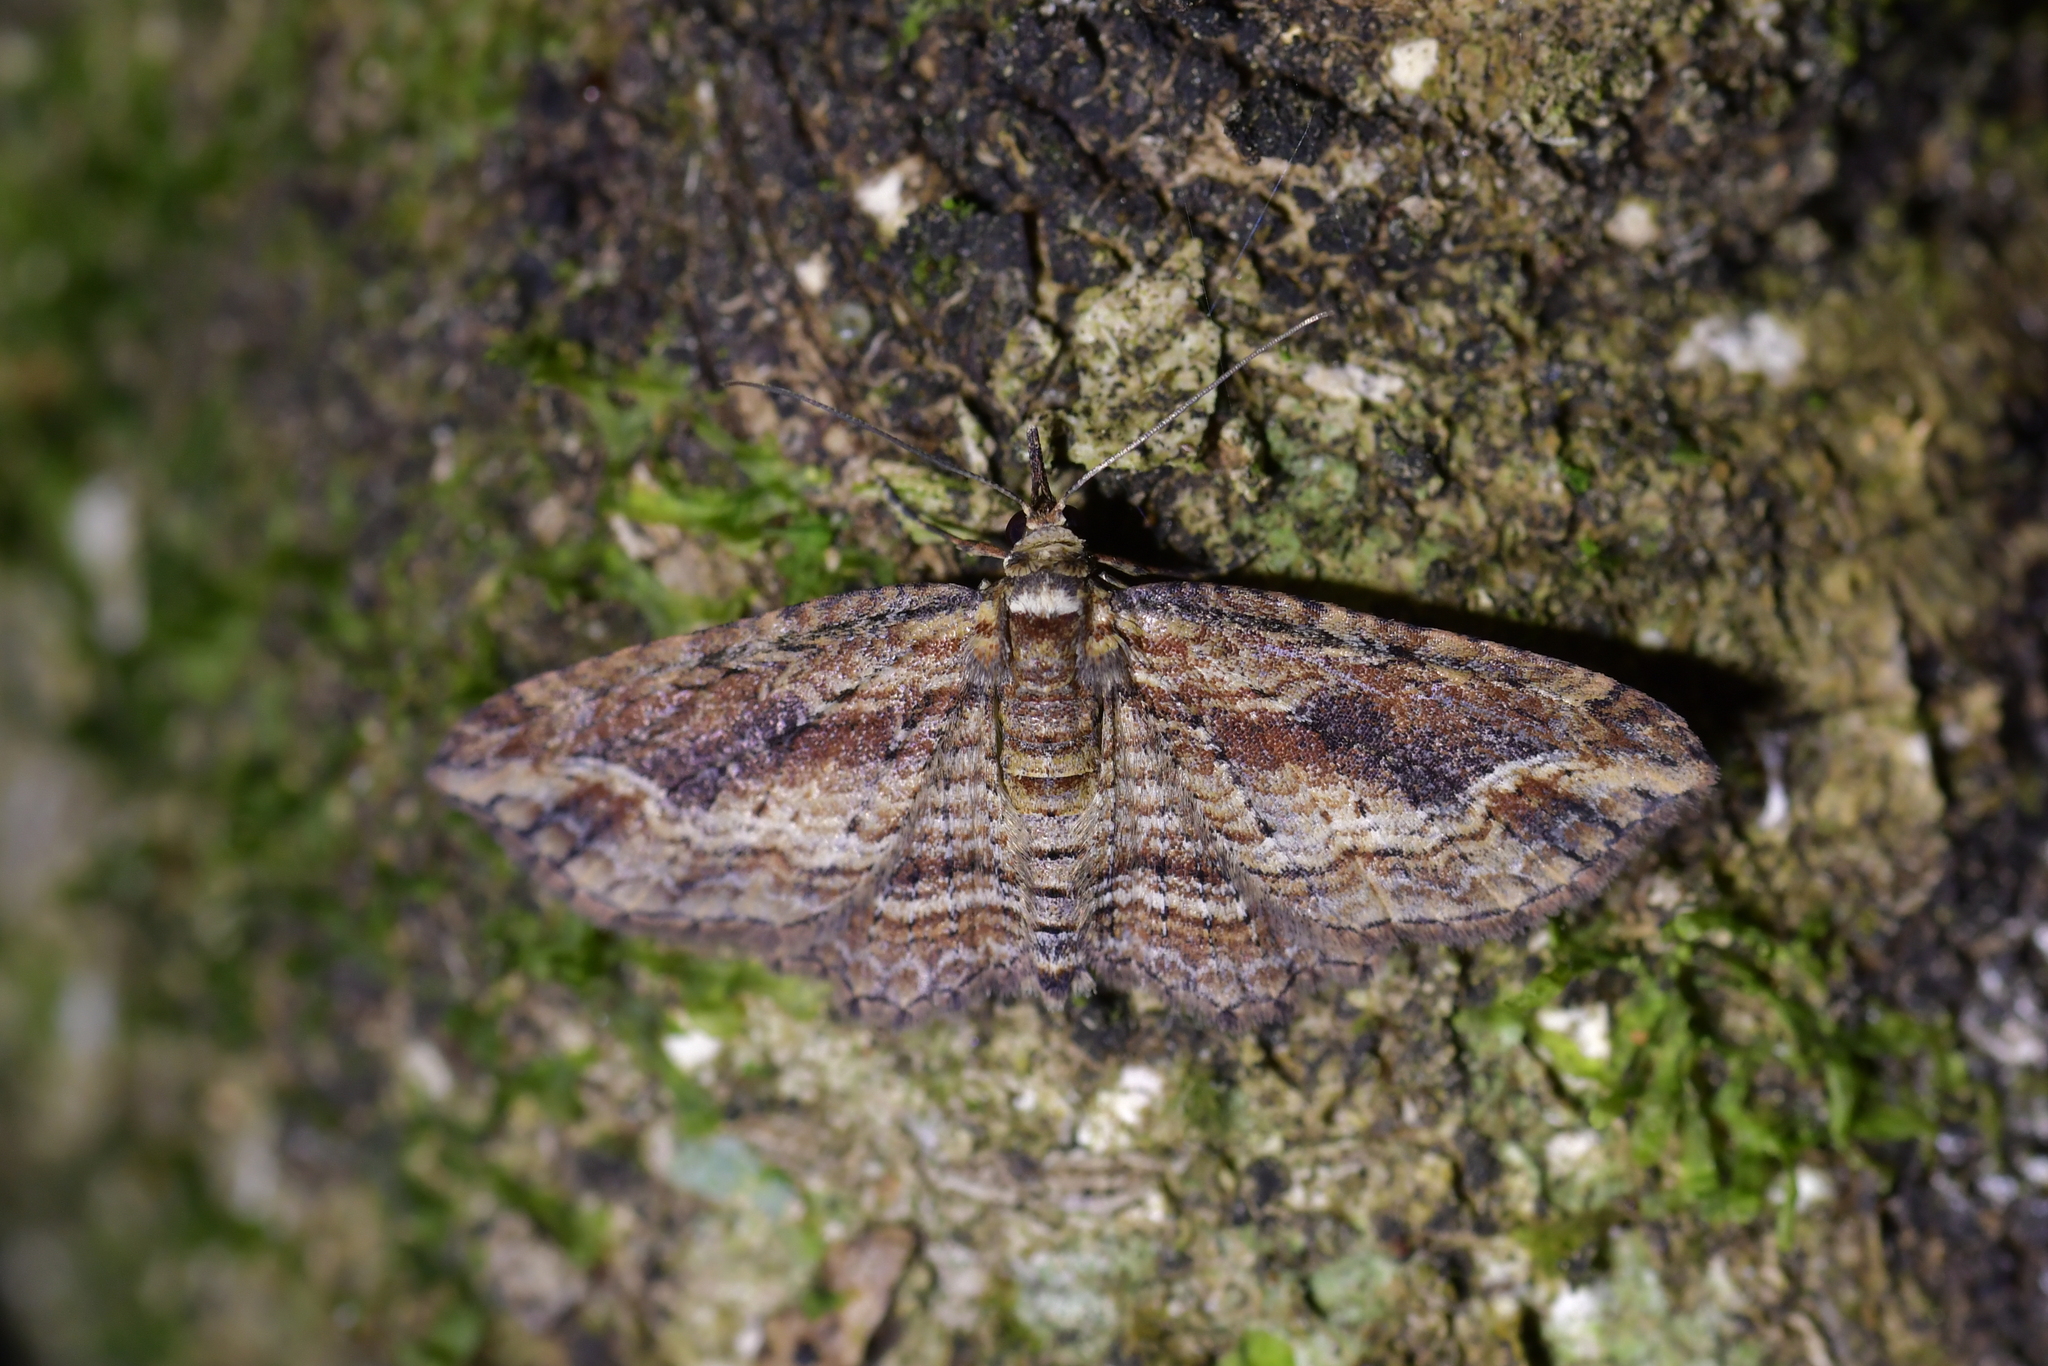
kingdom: Animalia
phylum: Arthropoda
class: Insecta
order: Lepidoptera
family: Geometridae
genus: Chloroclystis
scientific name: Chloroclystis filata
